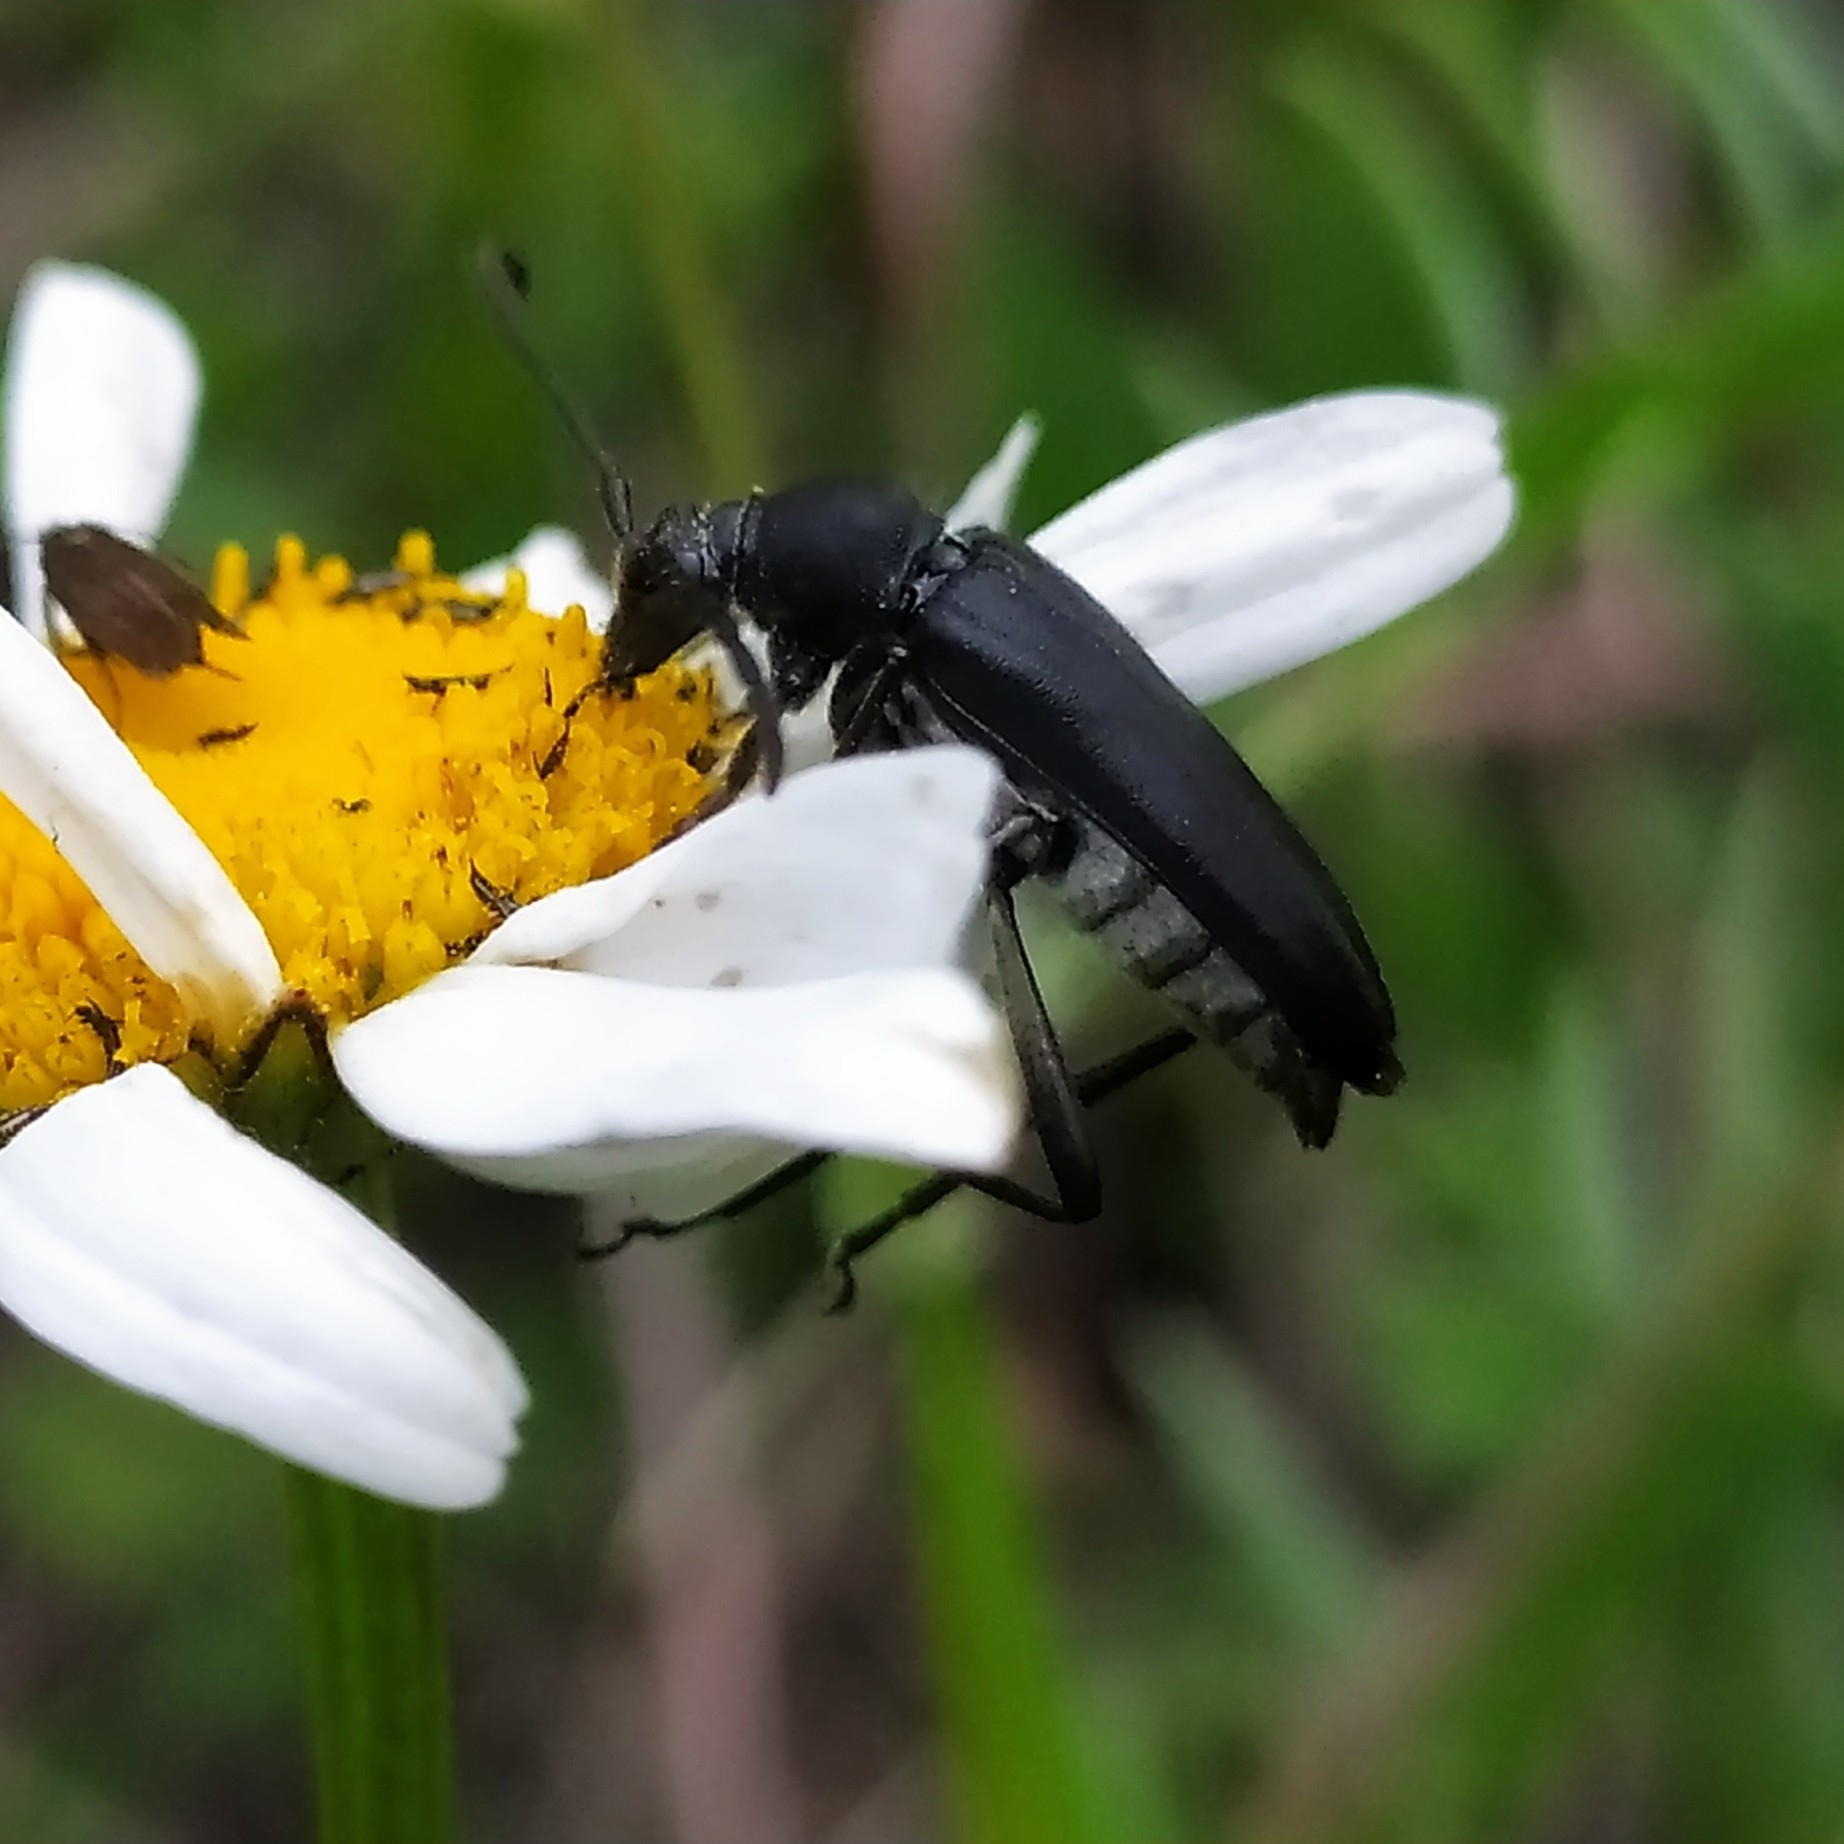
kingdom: Animalia
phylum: Arthropoda
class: Insecta
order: Coleoptera
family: Cerambycidae
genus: Leptura
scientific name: Leptura aethiops
